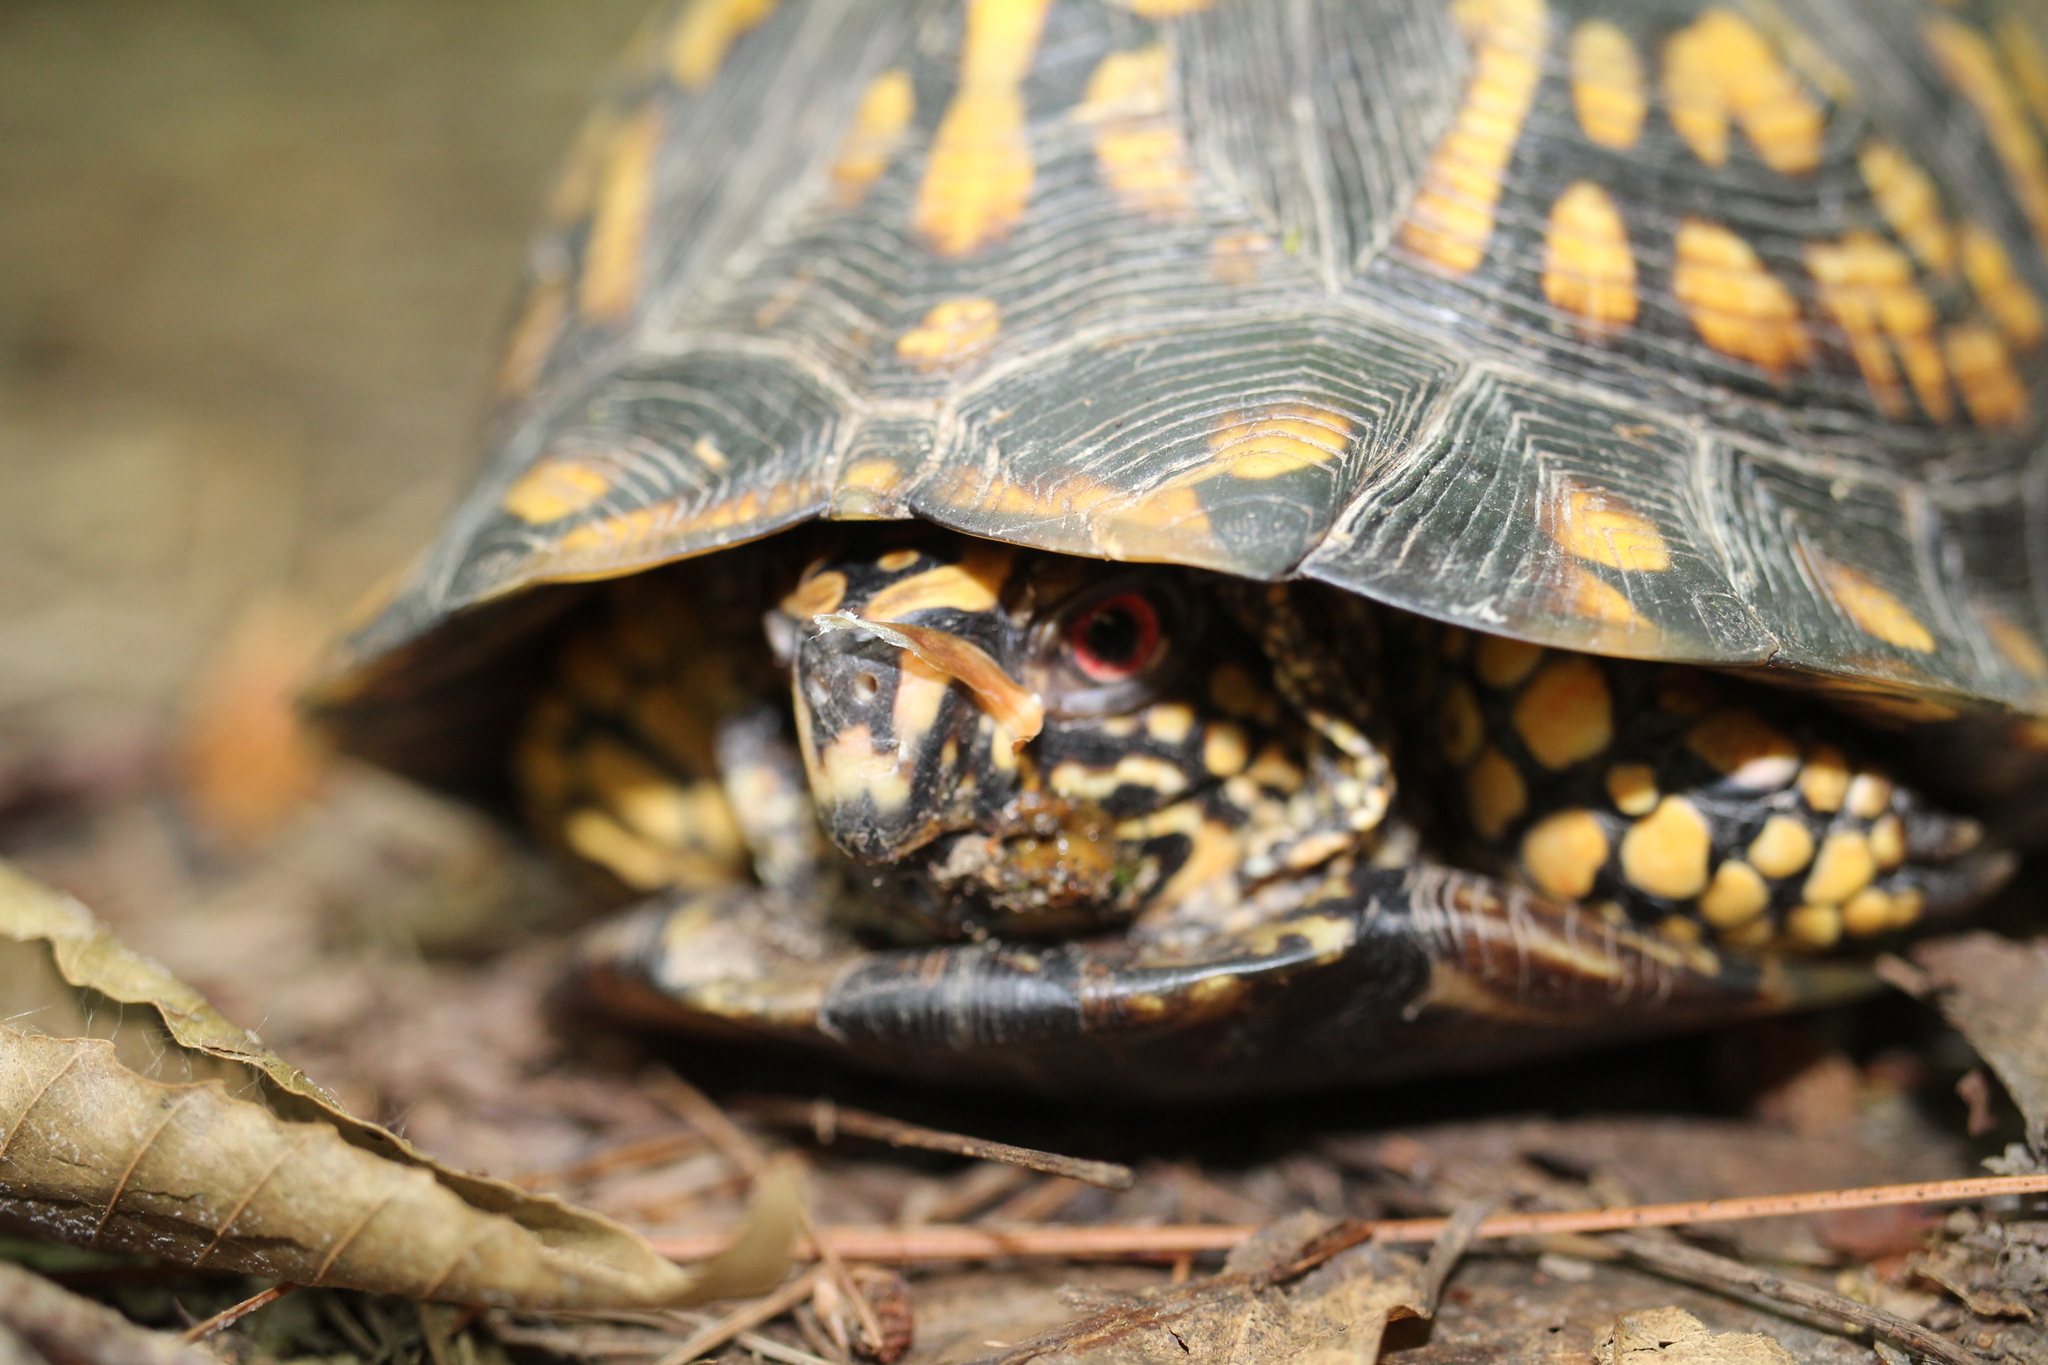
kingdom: Animalia
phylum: Chordata
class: Testudines
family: Emydidae
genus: Terrapene
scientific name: Terrapene carolina
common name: Common box turtle
